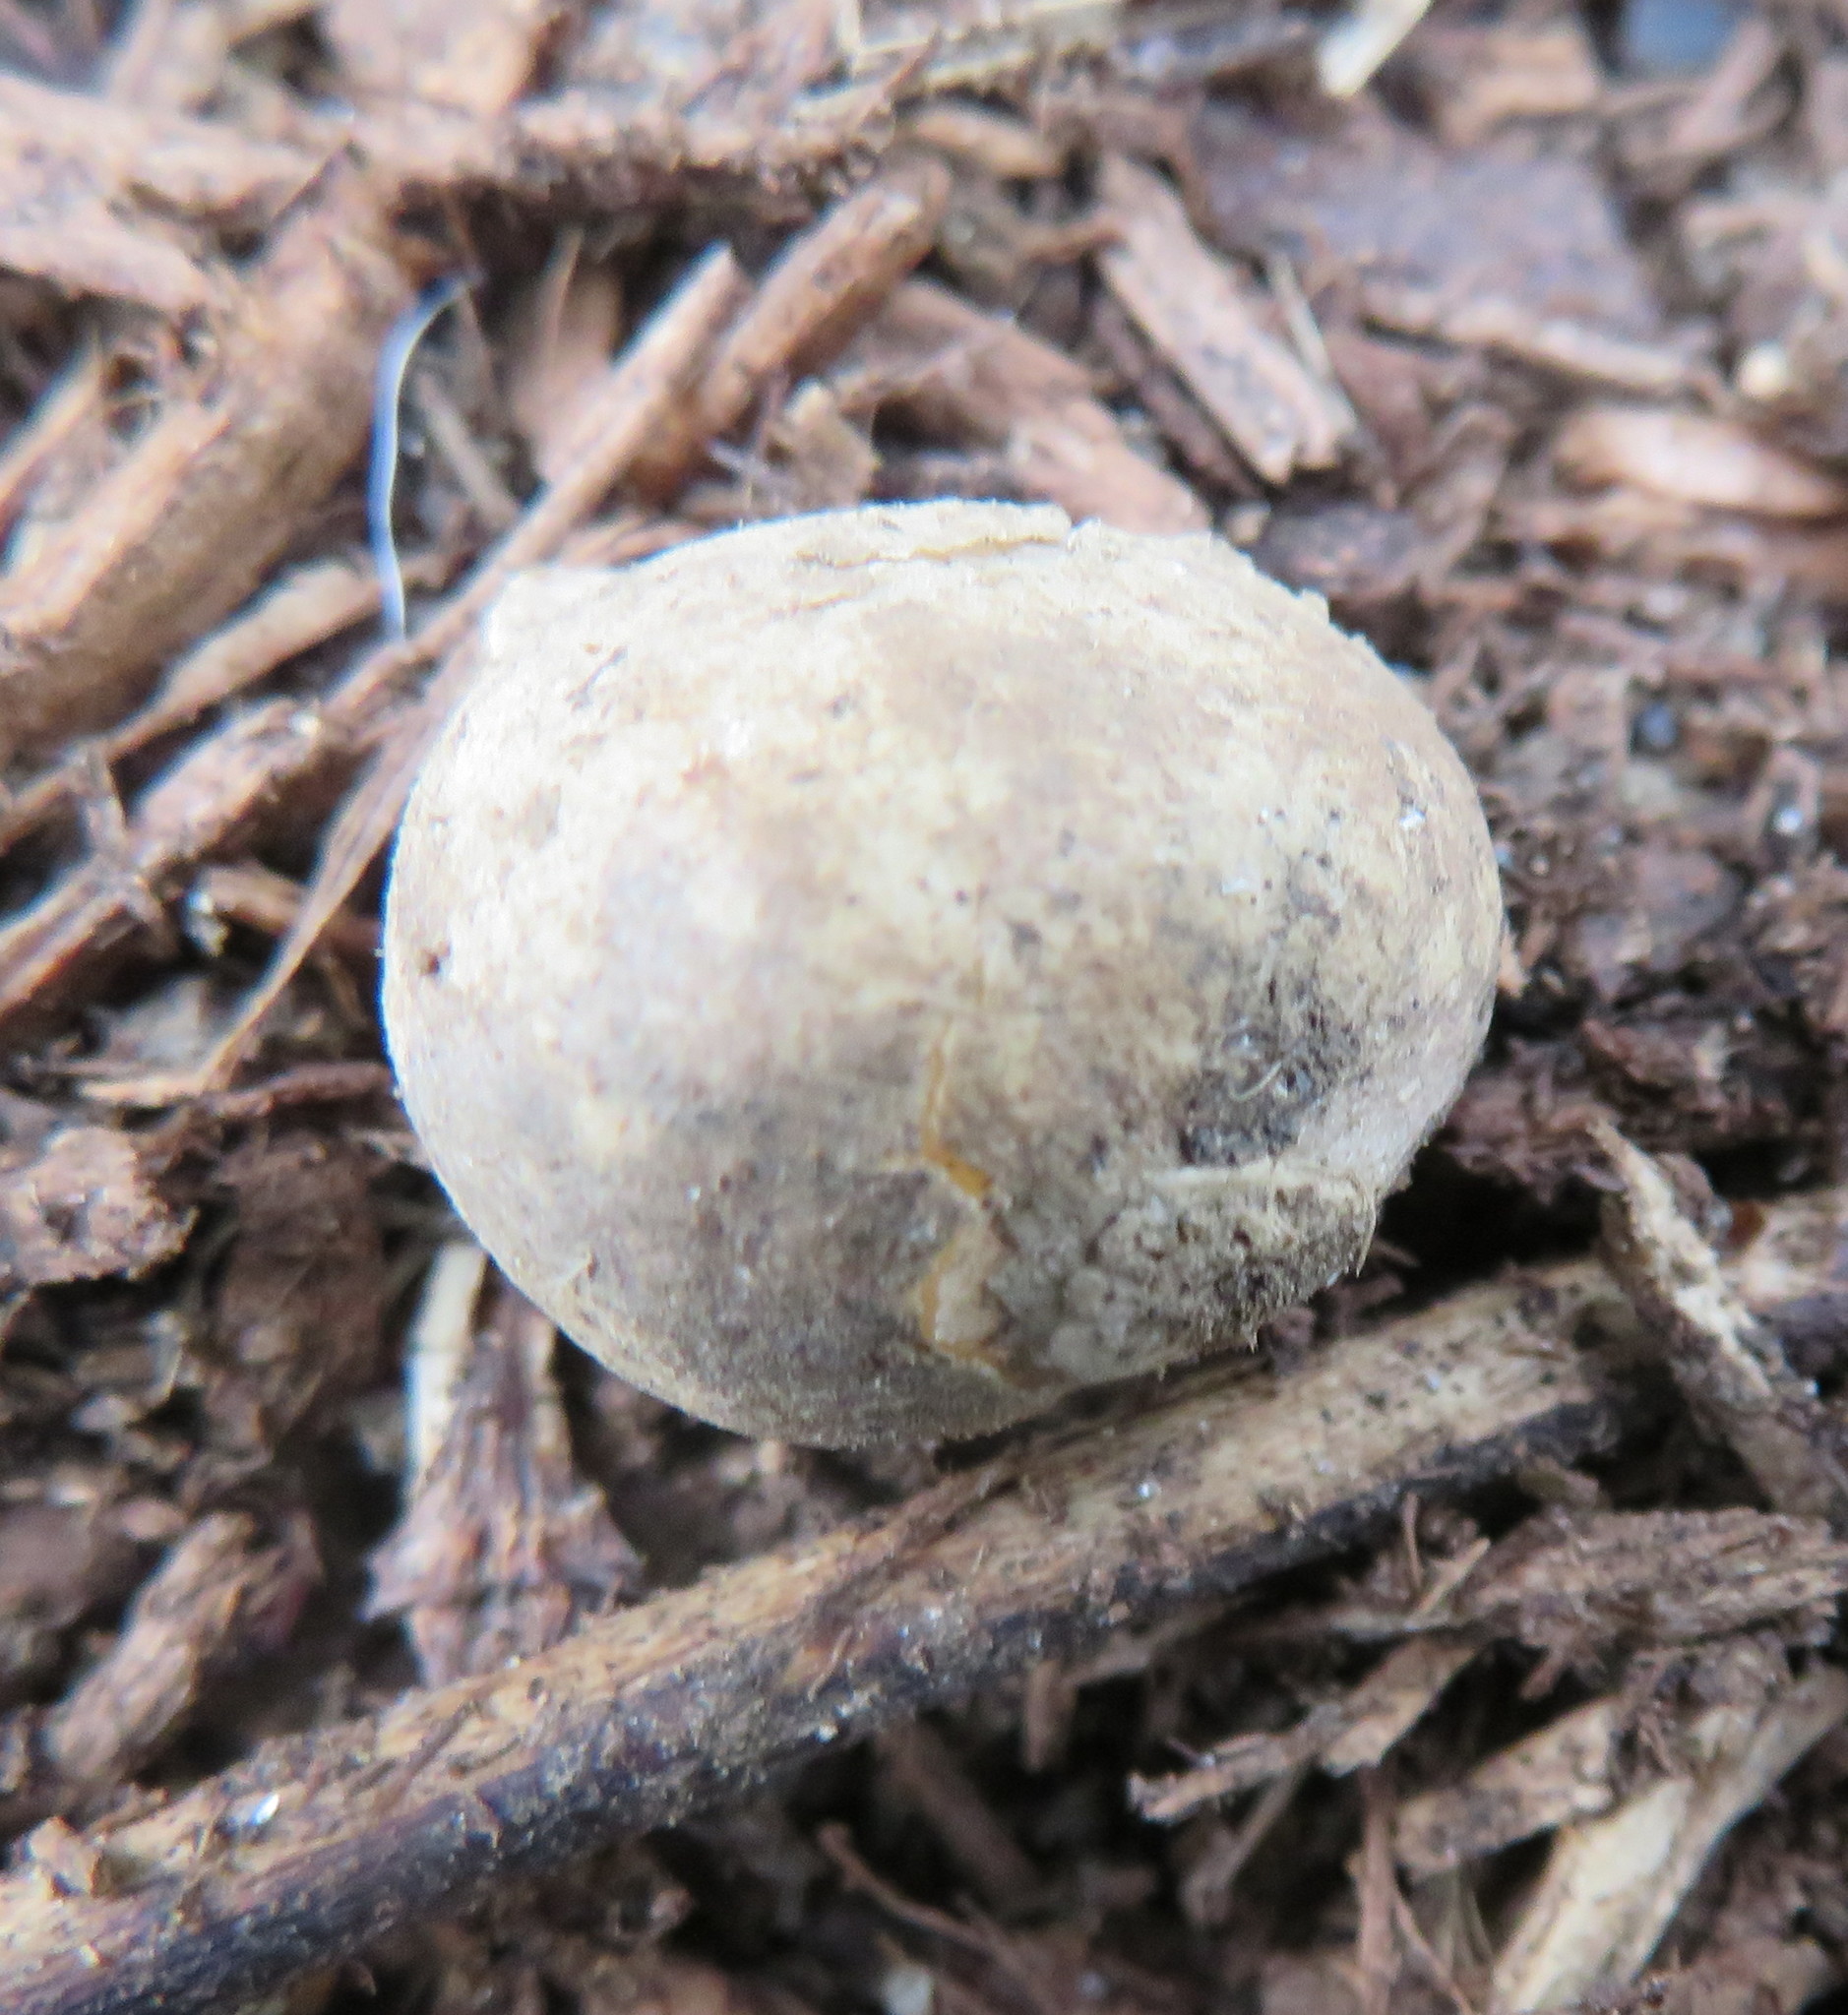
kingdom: Plantae
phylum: Tracheophyta
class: Liliopsida
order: Asparagales
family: Amaryllidaceae
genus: Allium
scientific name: Allium triquetrum
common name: Three-cornered garlic
